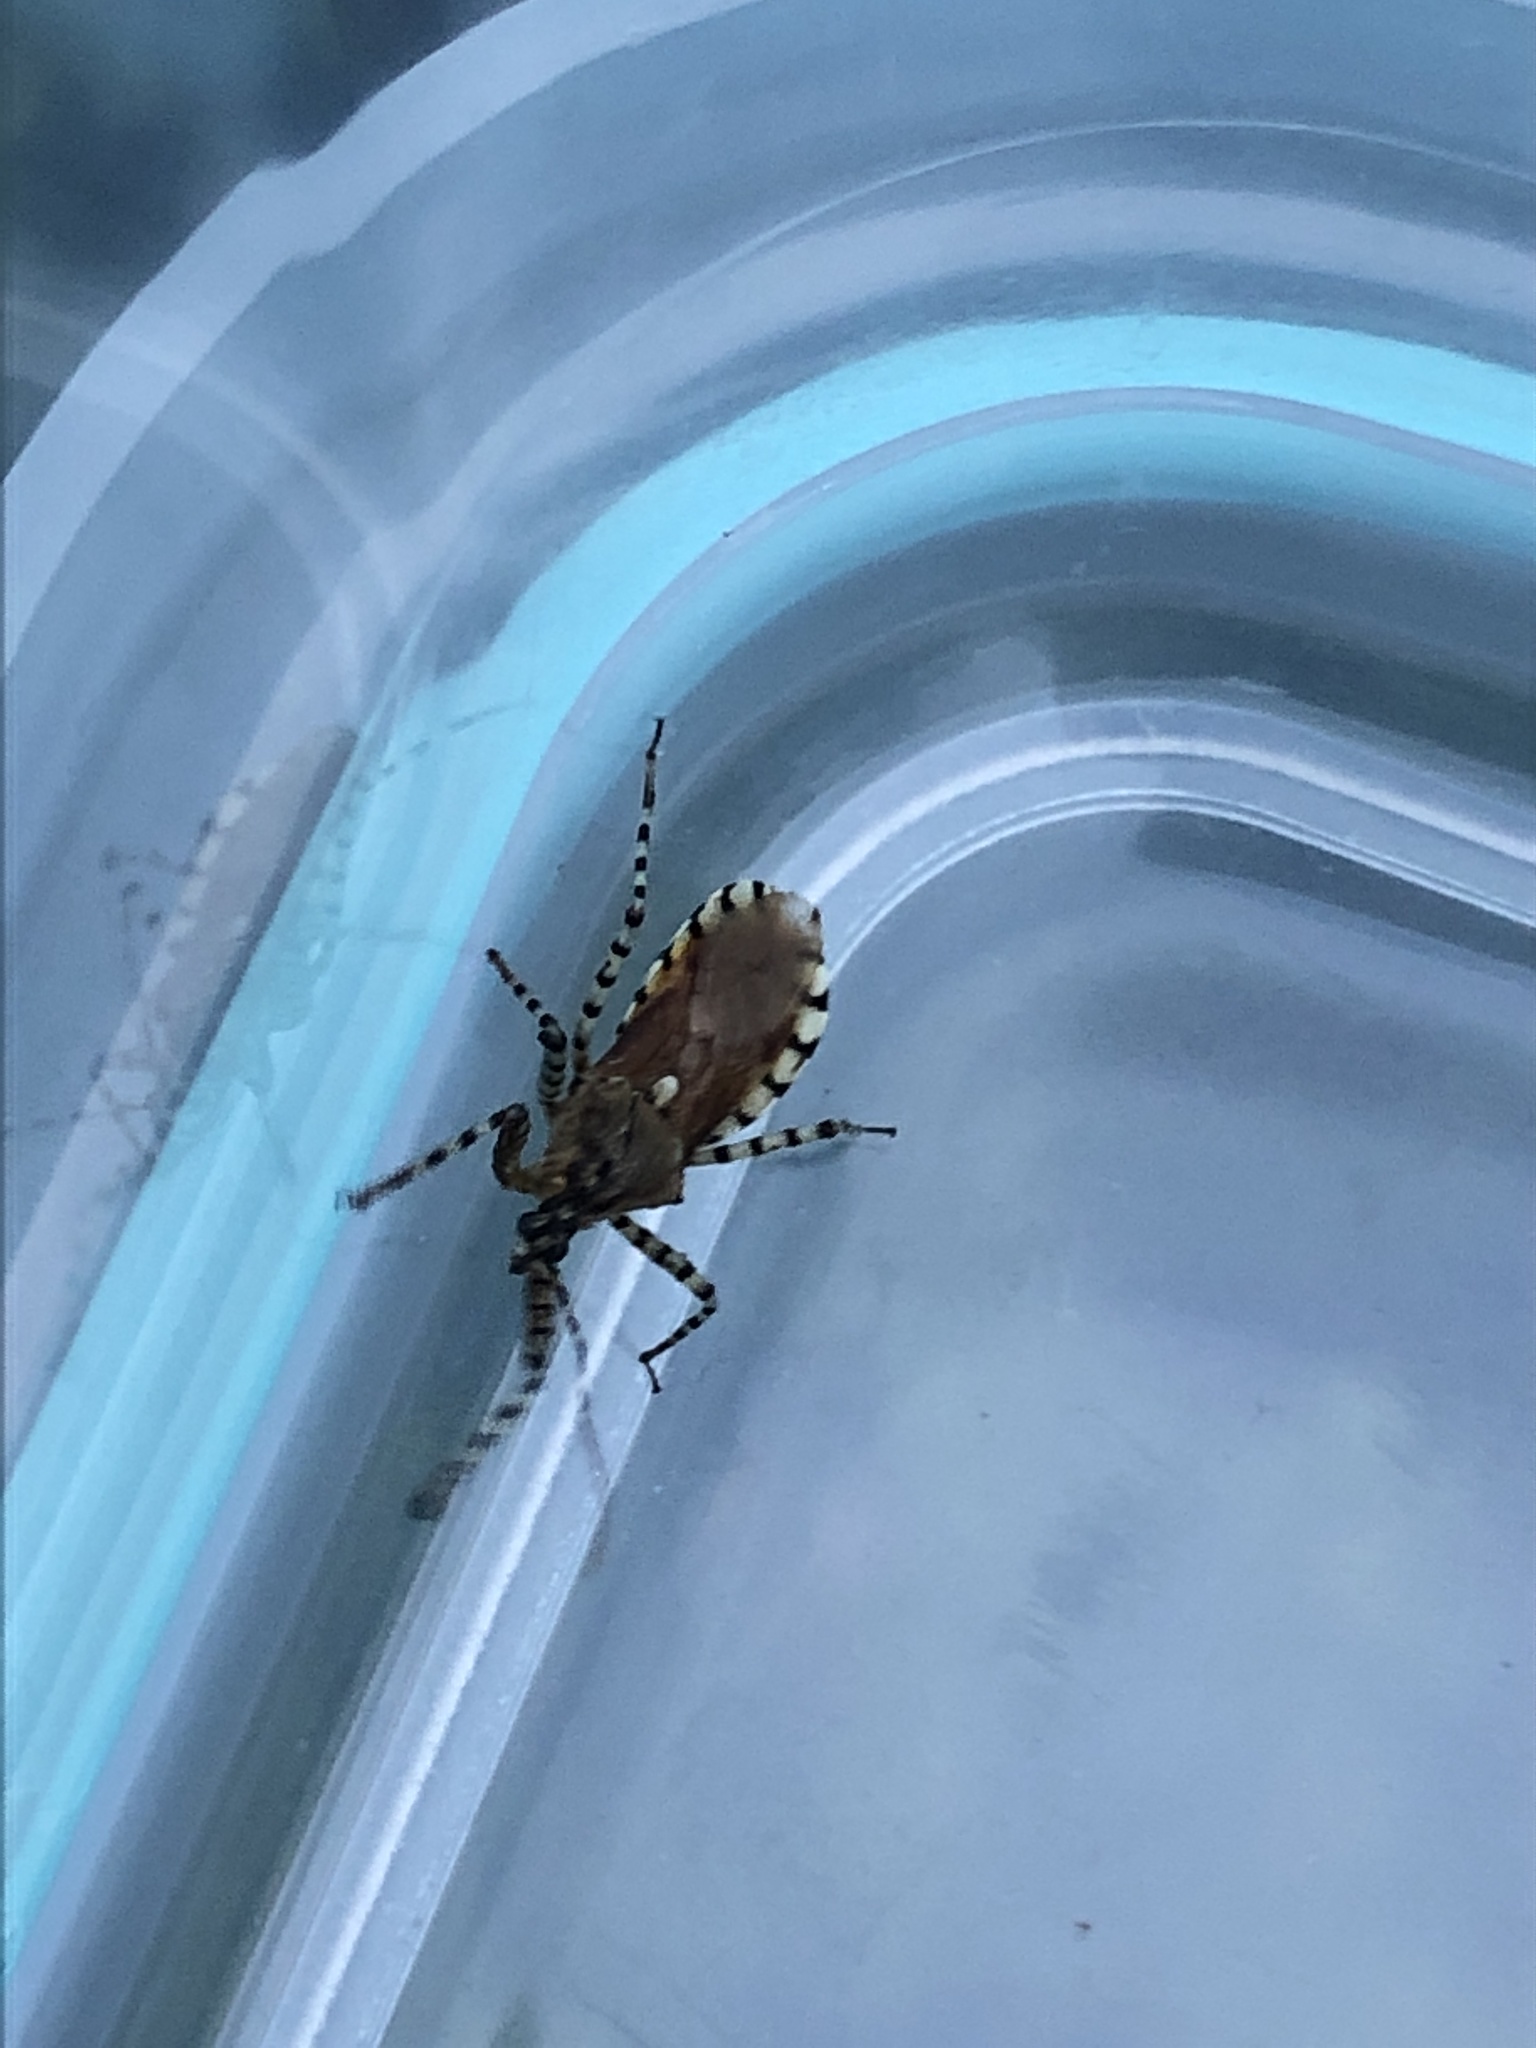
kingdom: Animalia
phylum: Arthropoda
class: Insecta
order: Hemiptera
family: Reduviidae
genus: Pselliopus
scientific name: Pselliopus cinctus
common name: Ringed assassin bug
